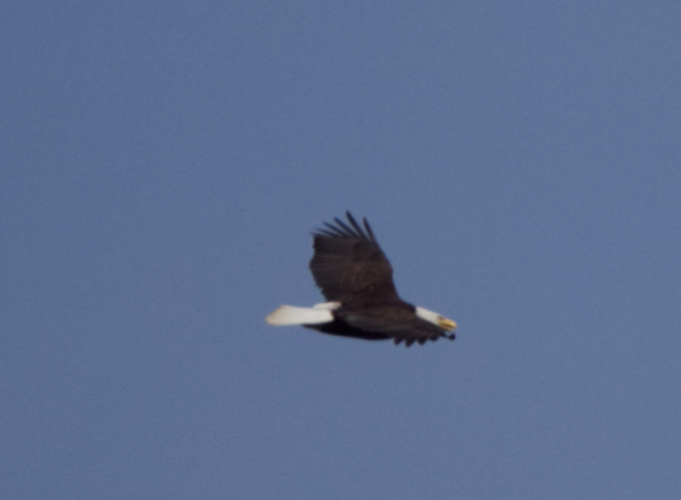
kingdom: Animalia
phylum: Chordata
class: Aves
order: Accipitriformes
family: Accipitridae
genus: Haliaeetus
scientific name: Haliaeetus leucocephalus
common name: Bald eagle
